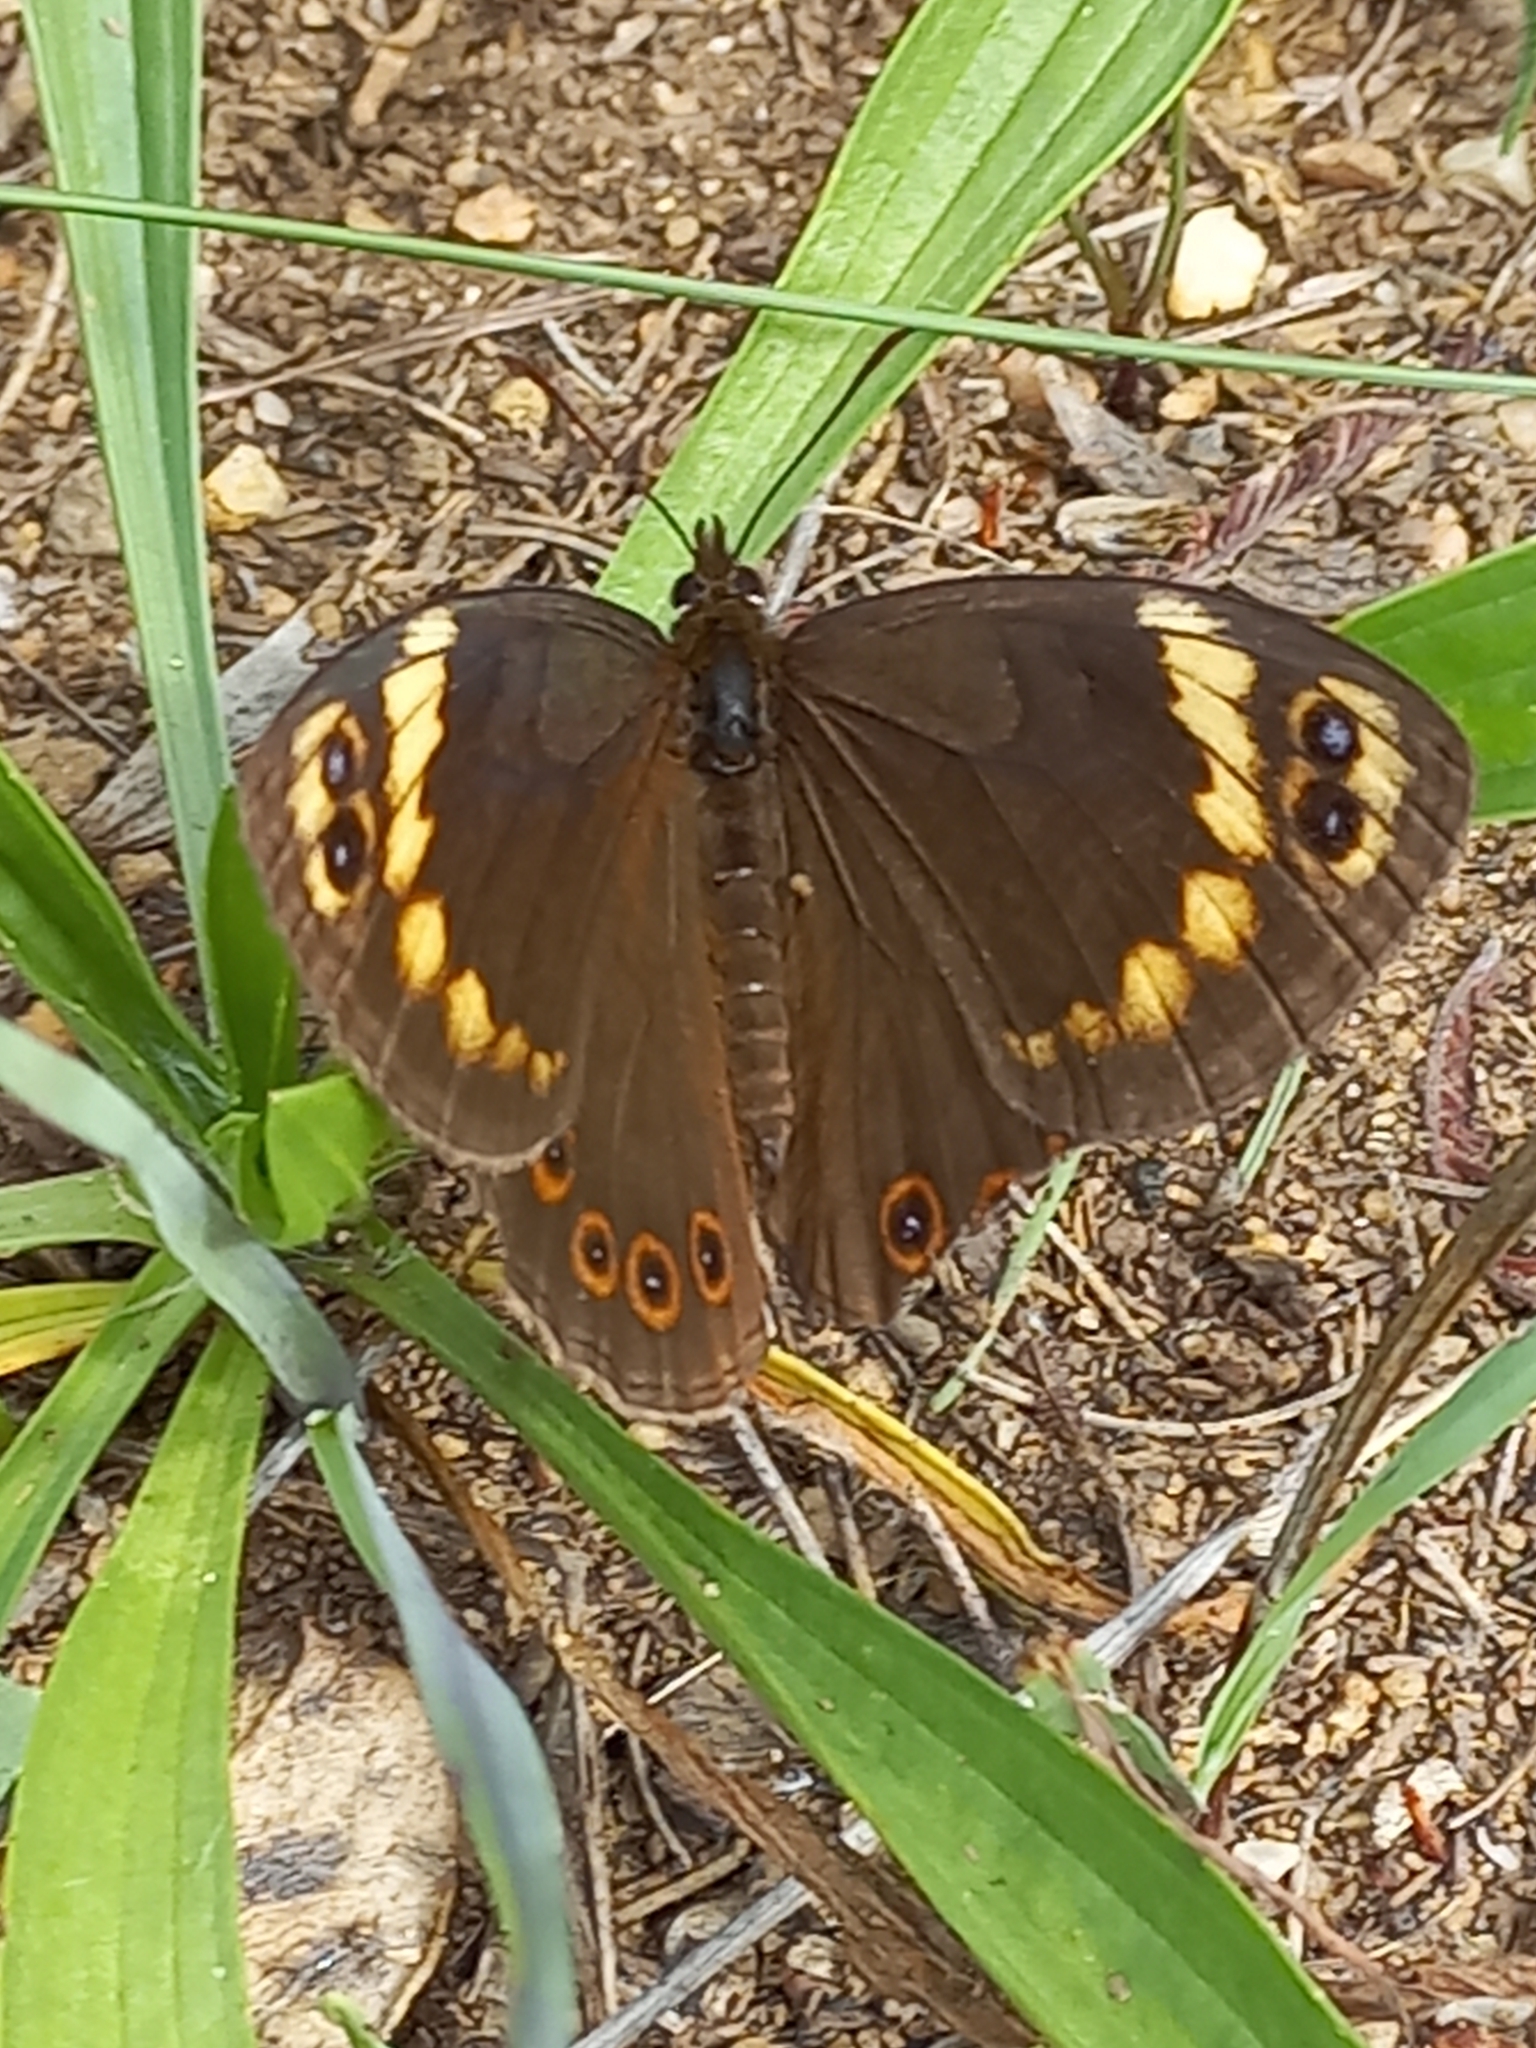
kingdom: Animalia
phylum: Arthropoda
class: Insecta
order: Lepidoptera
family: Nymphalidae
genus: Dira
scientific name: Dira clytus
